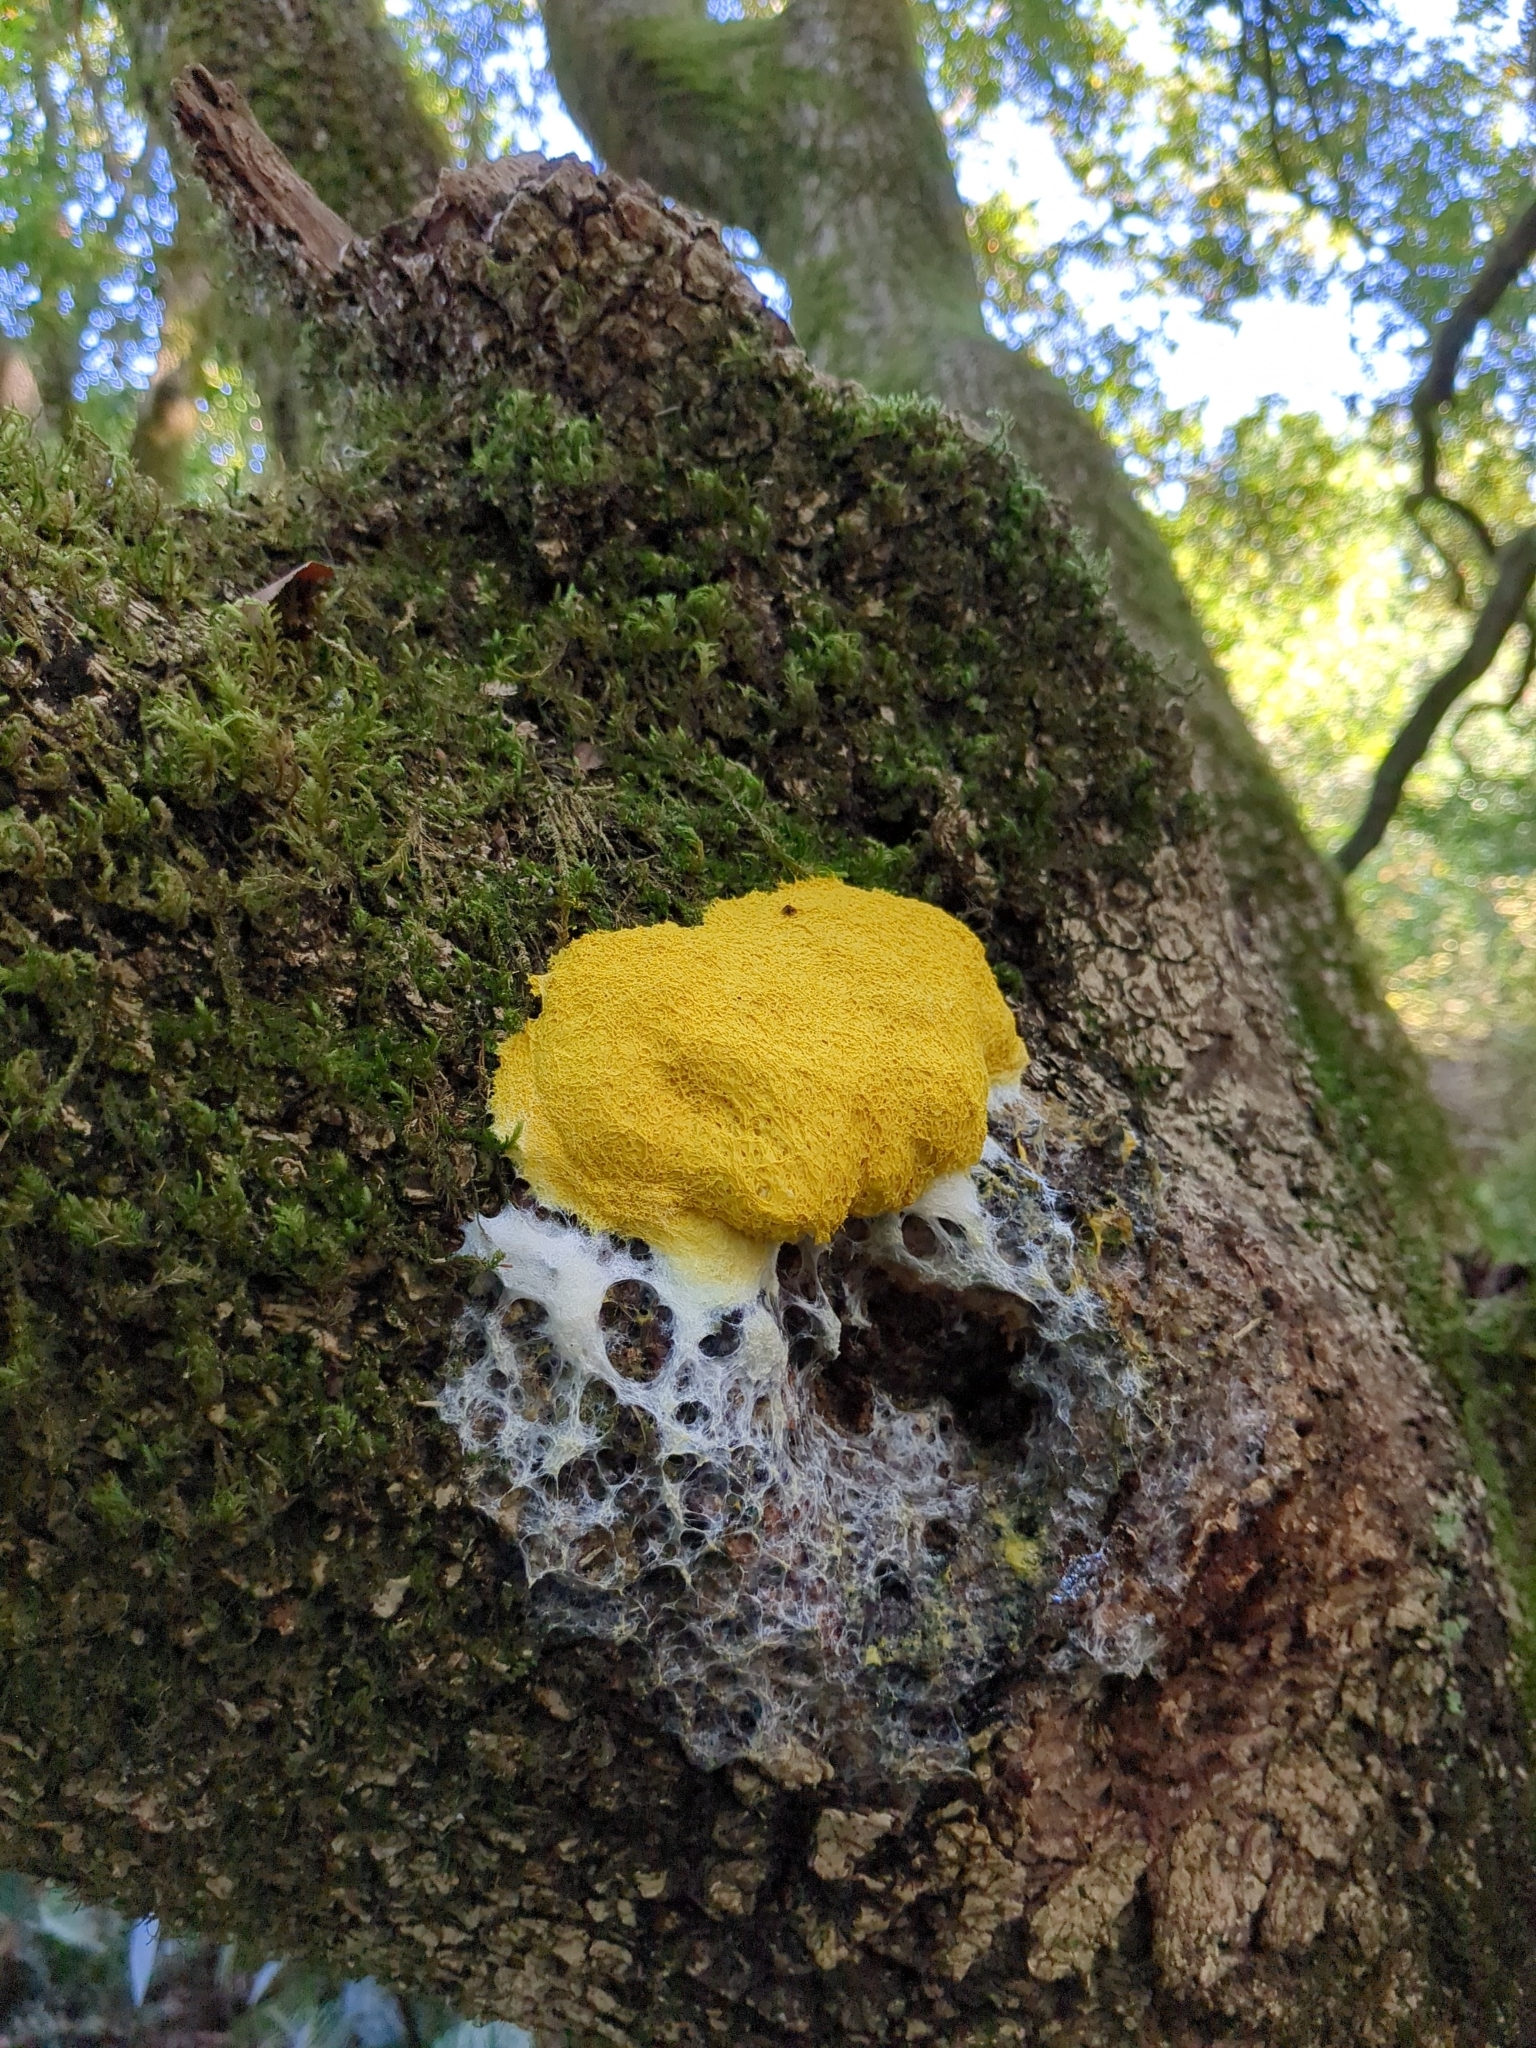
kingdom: Protozoa
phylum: Mycetozoa
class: Myxomycetes
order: Physarales
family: Physaraceae
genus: Fuligo
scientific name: Fuligo septica
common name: Dog vomit slime mold
